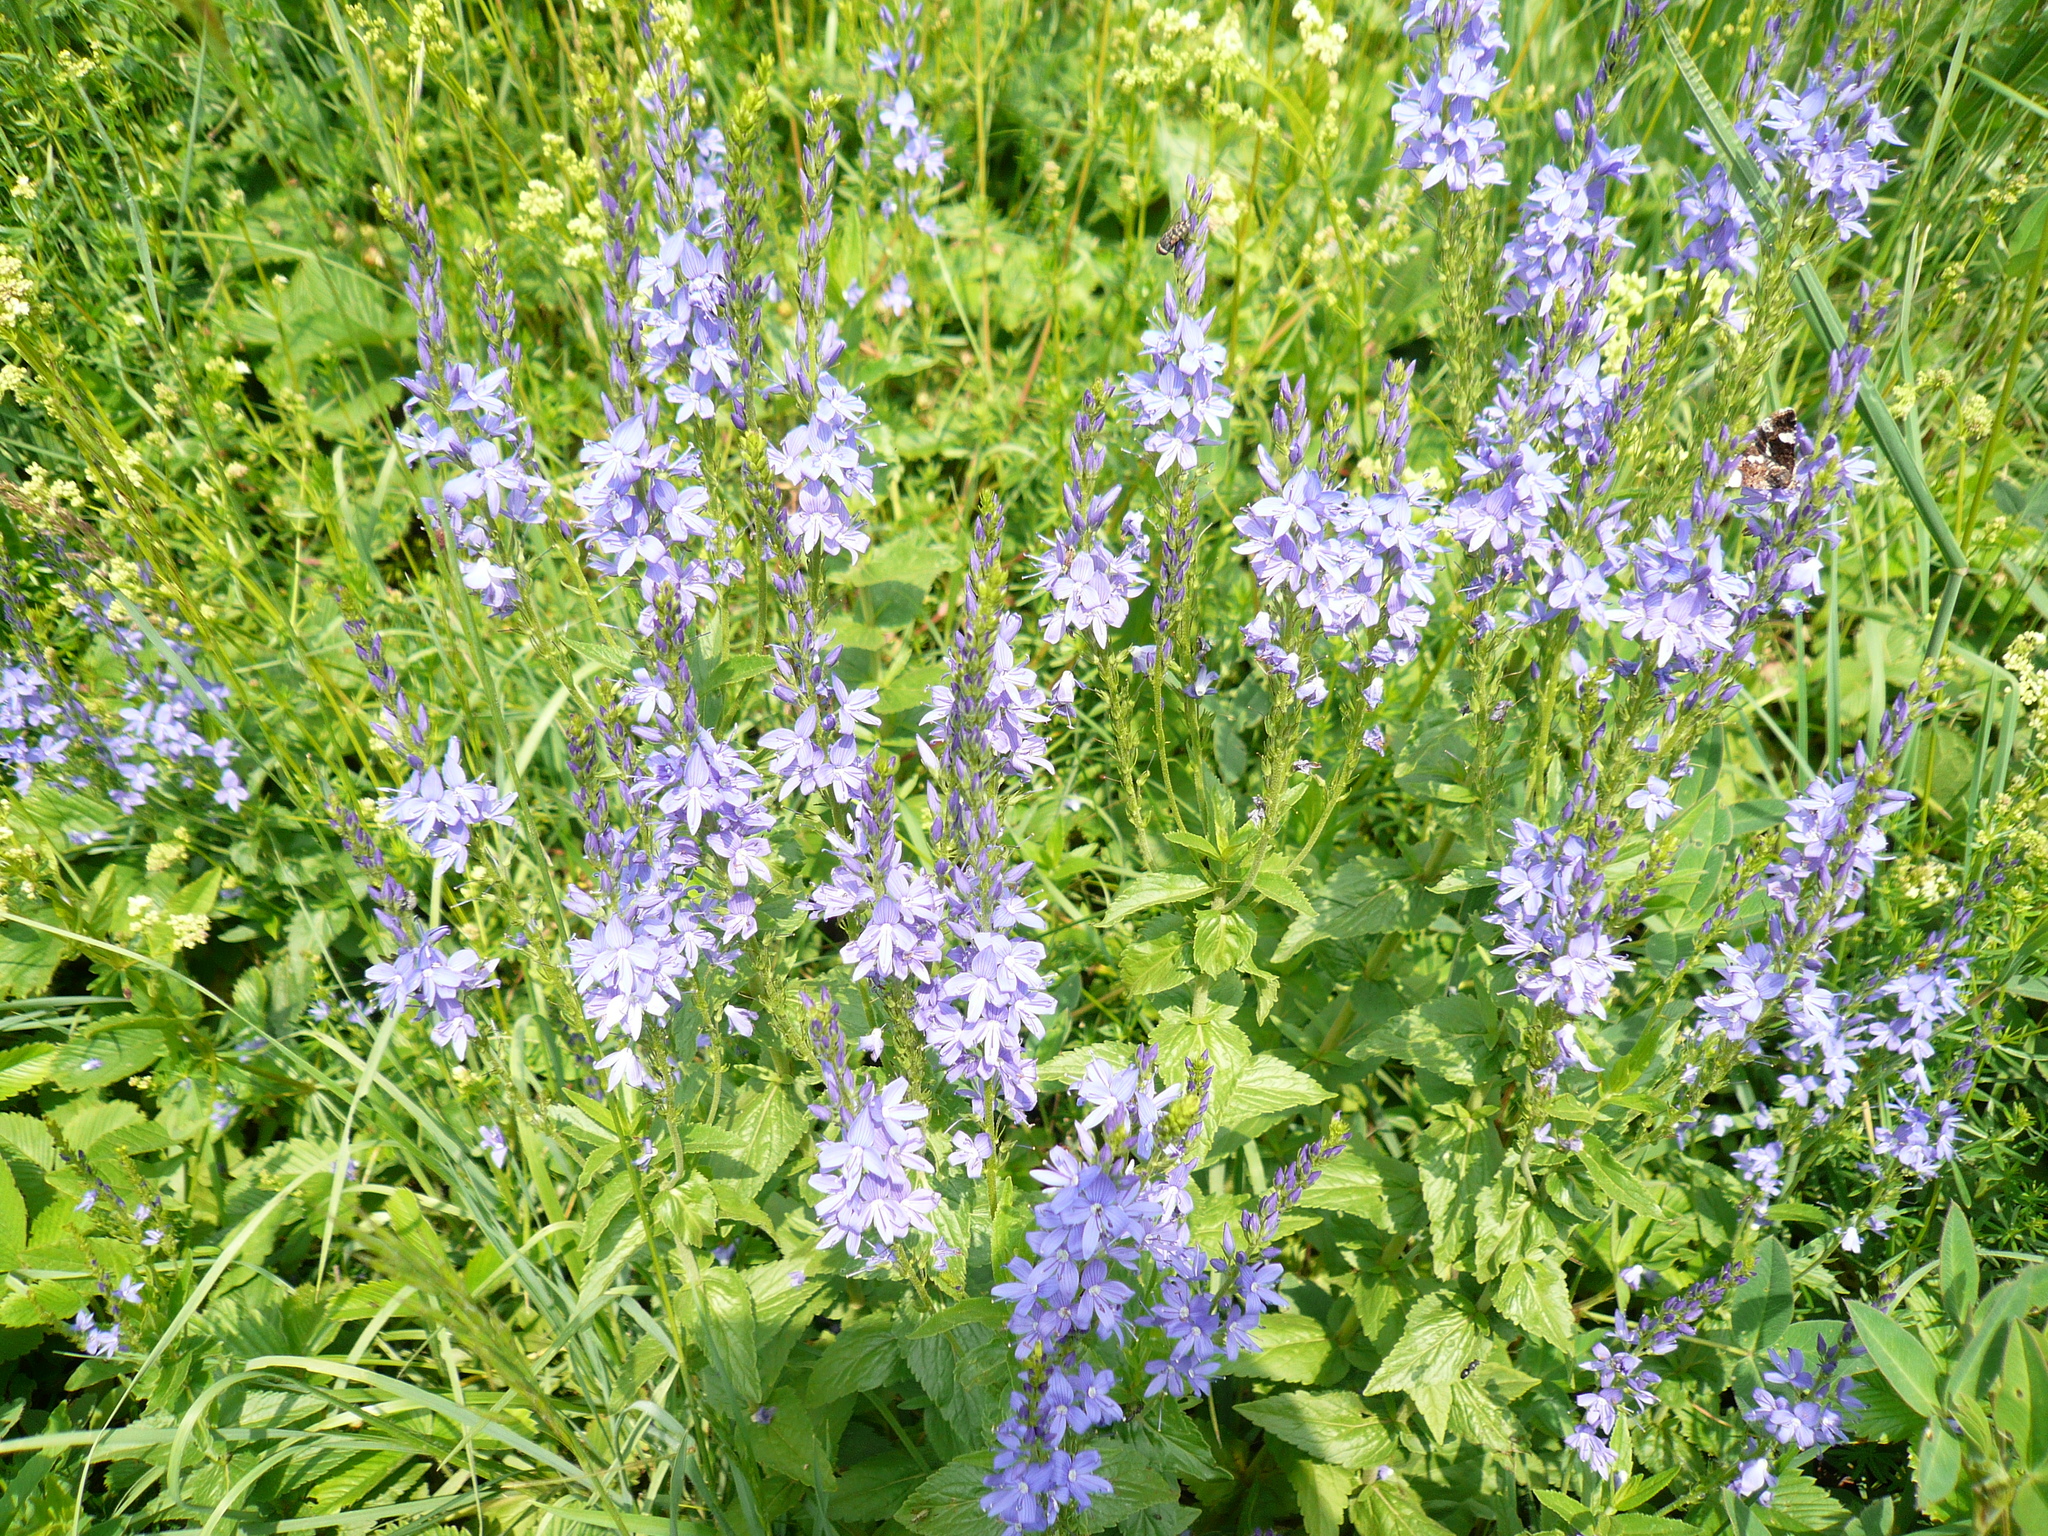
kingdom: Plantae
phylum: Tracheophyta
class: Magnoliopsida
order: Lamiales
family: Plantaginaceae
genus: Veronica
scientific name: Veronica teucrium
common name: Large speedwell
